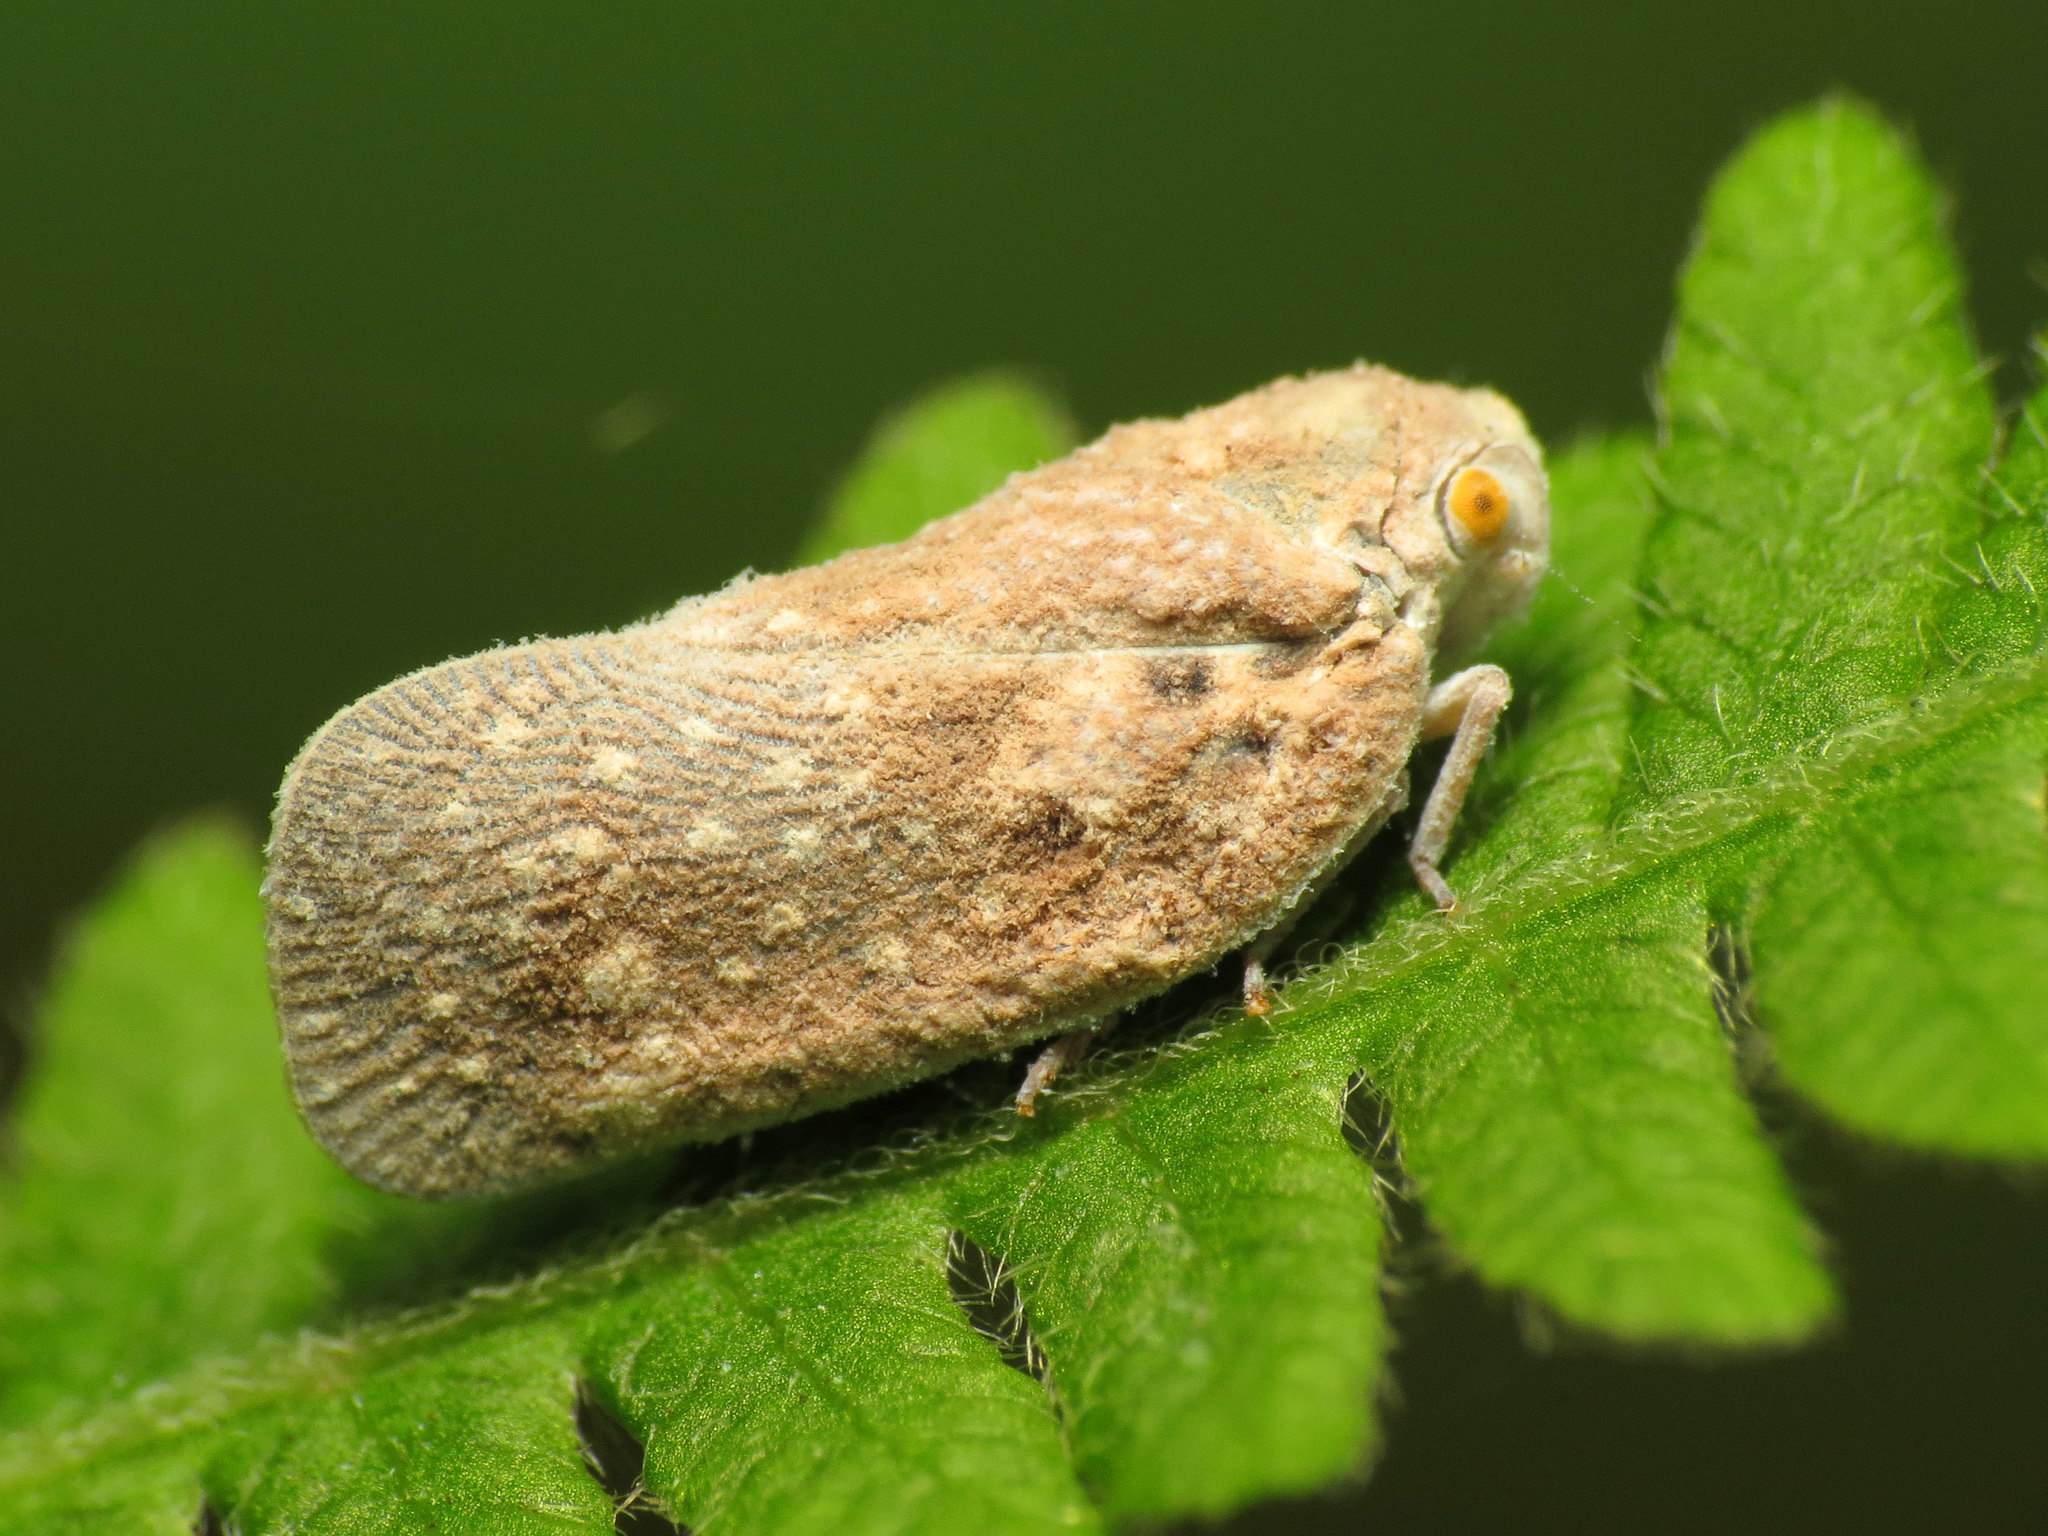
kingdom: Animalia
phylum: Arthropoda
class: Insecta
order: Hemiptera
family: Flatidae
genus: Metcalfa
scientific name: Metcalfa pruinosa
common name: Citrus flatid planthopper
